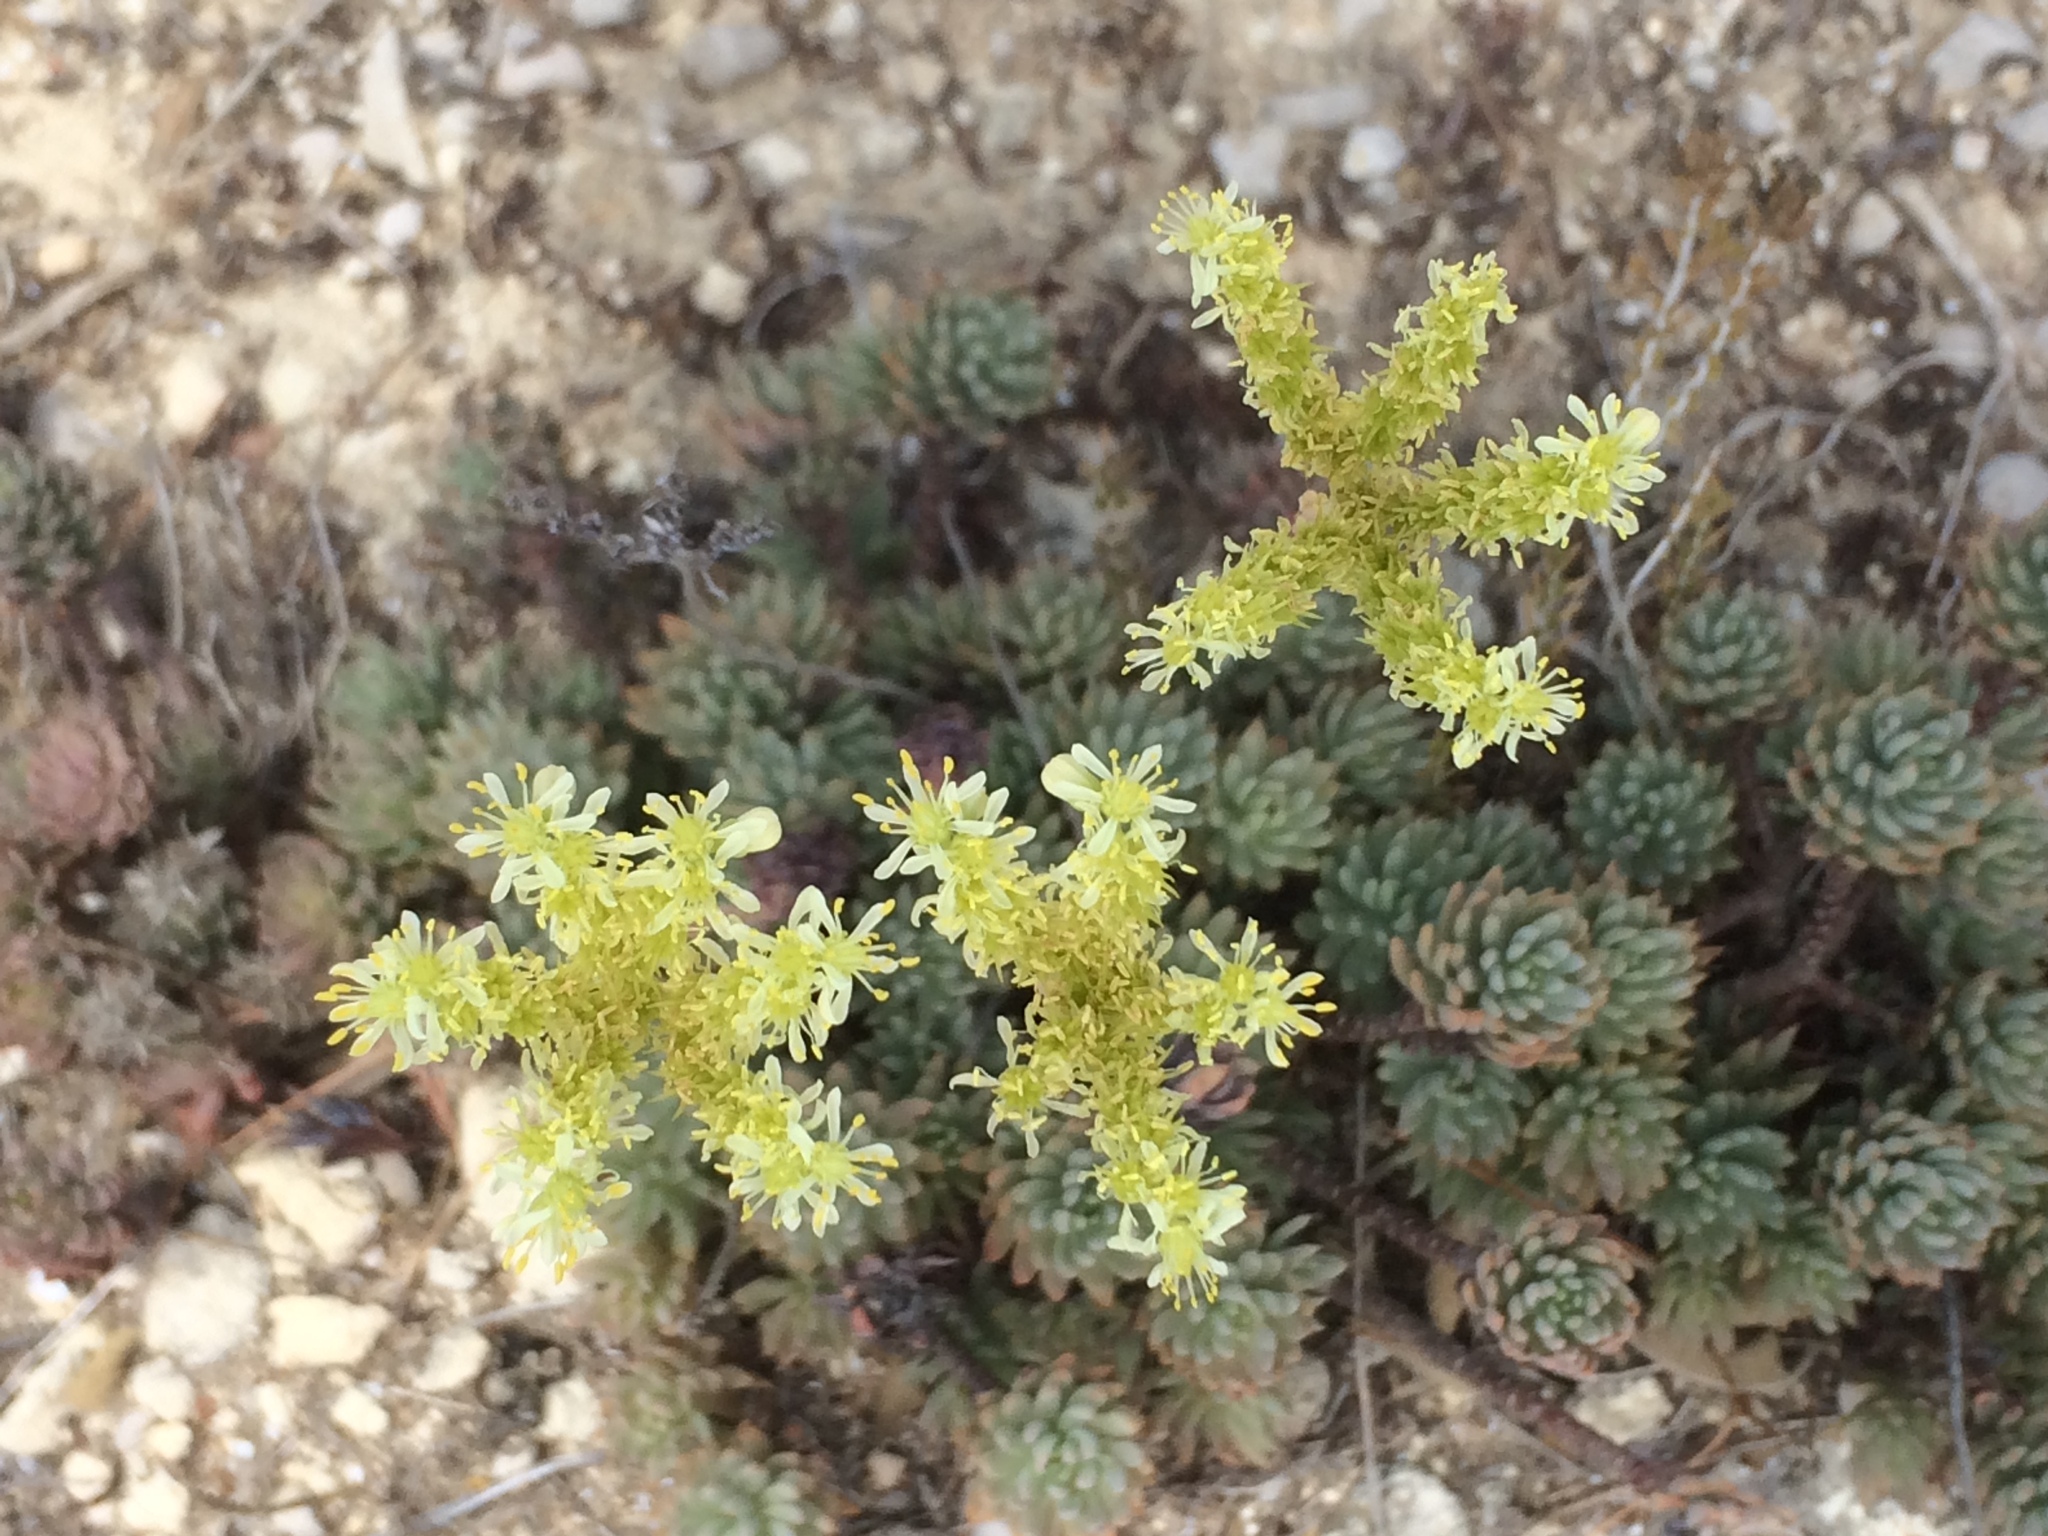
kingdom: Plantae
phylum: Tracheophyta
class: Magnoliopsida
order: Saxifragales
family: Crassulaceae
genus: Petrosedum
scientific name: Petrosedum sediforme
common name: Pale stonecrop
